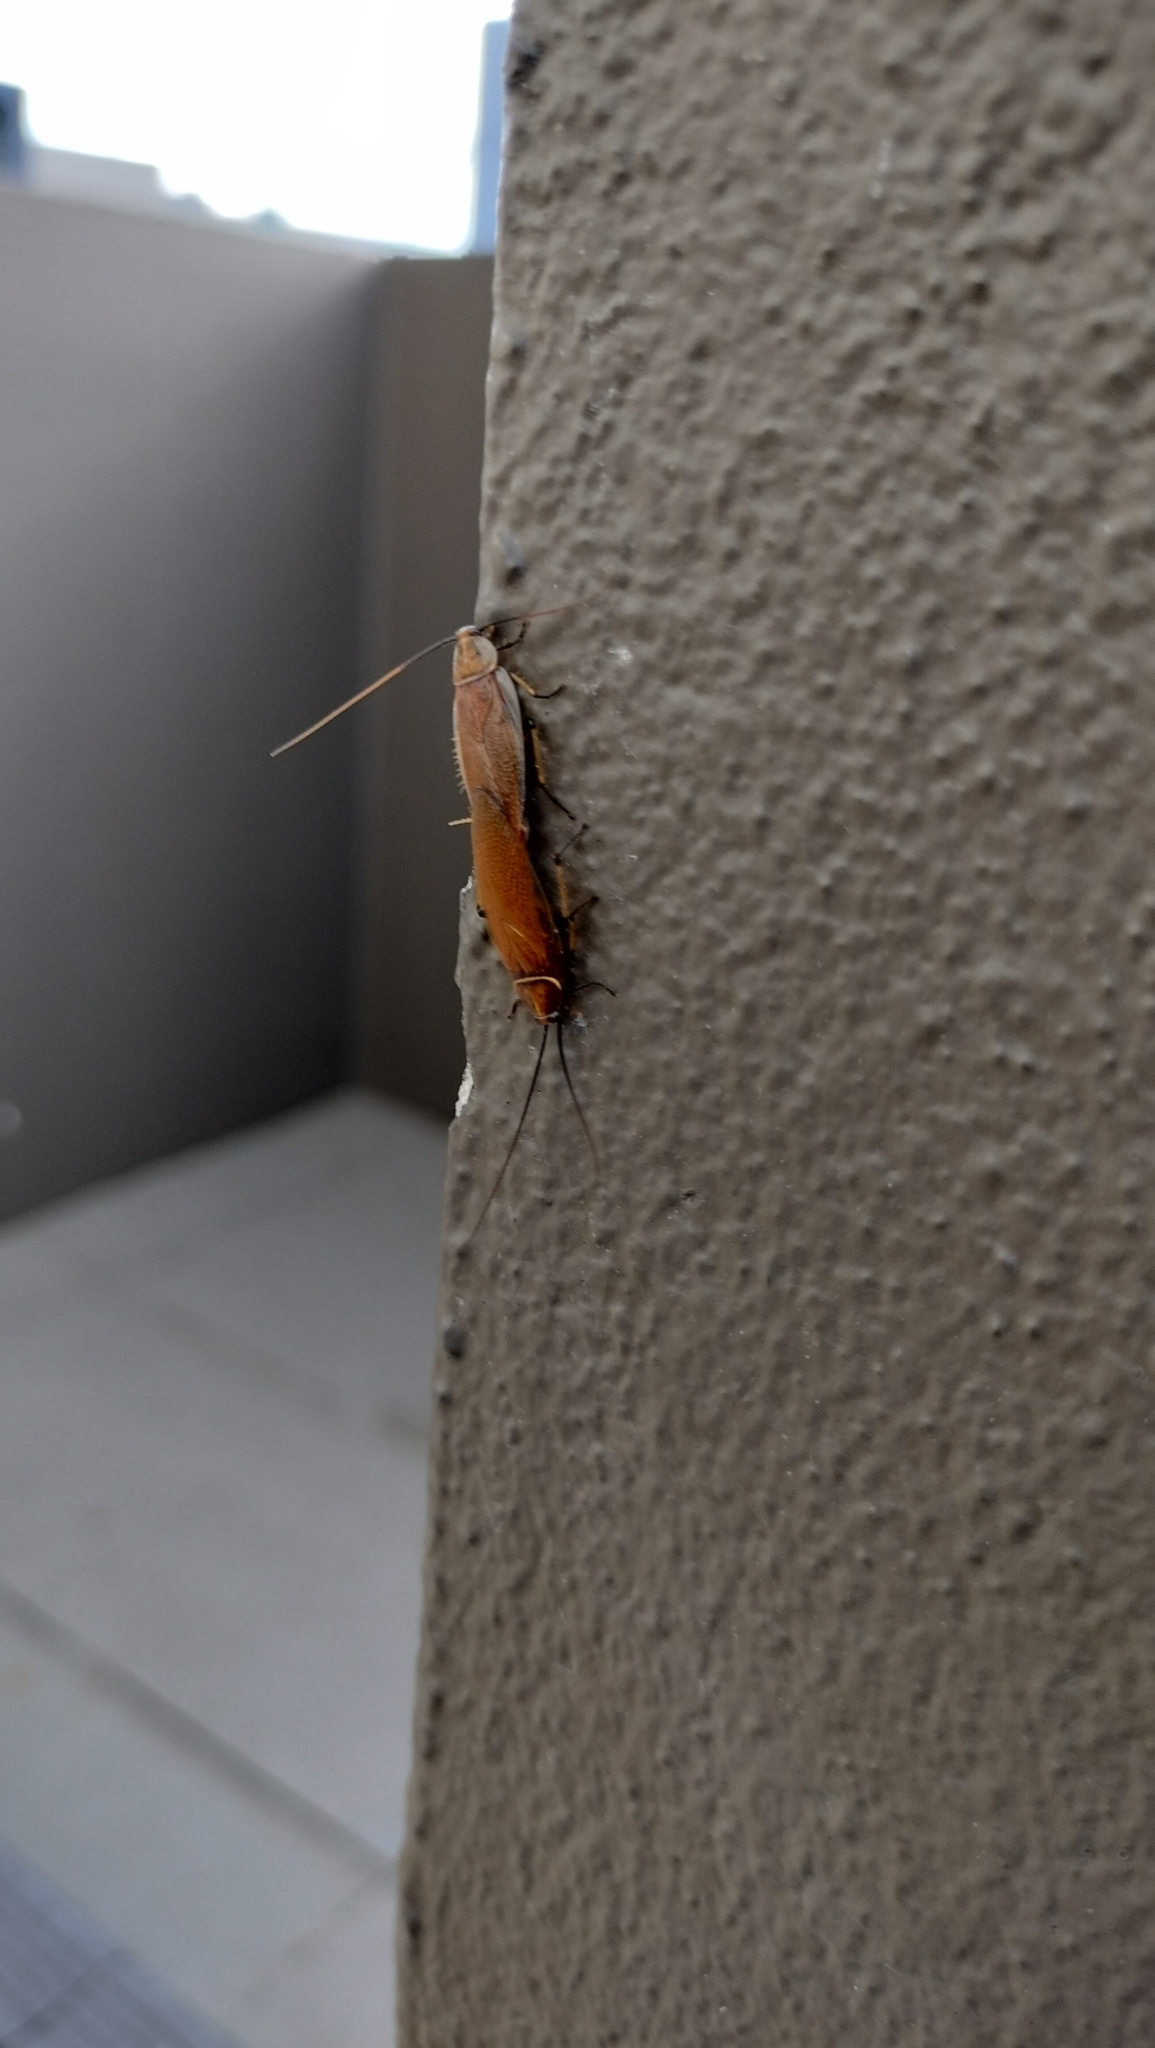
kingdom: Animalia
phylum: Arthropoda
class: Insecta
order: Blattodea
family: Ectobiidae
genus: Balta
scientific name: Balta bicolor
